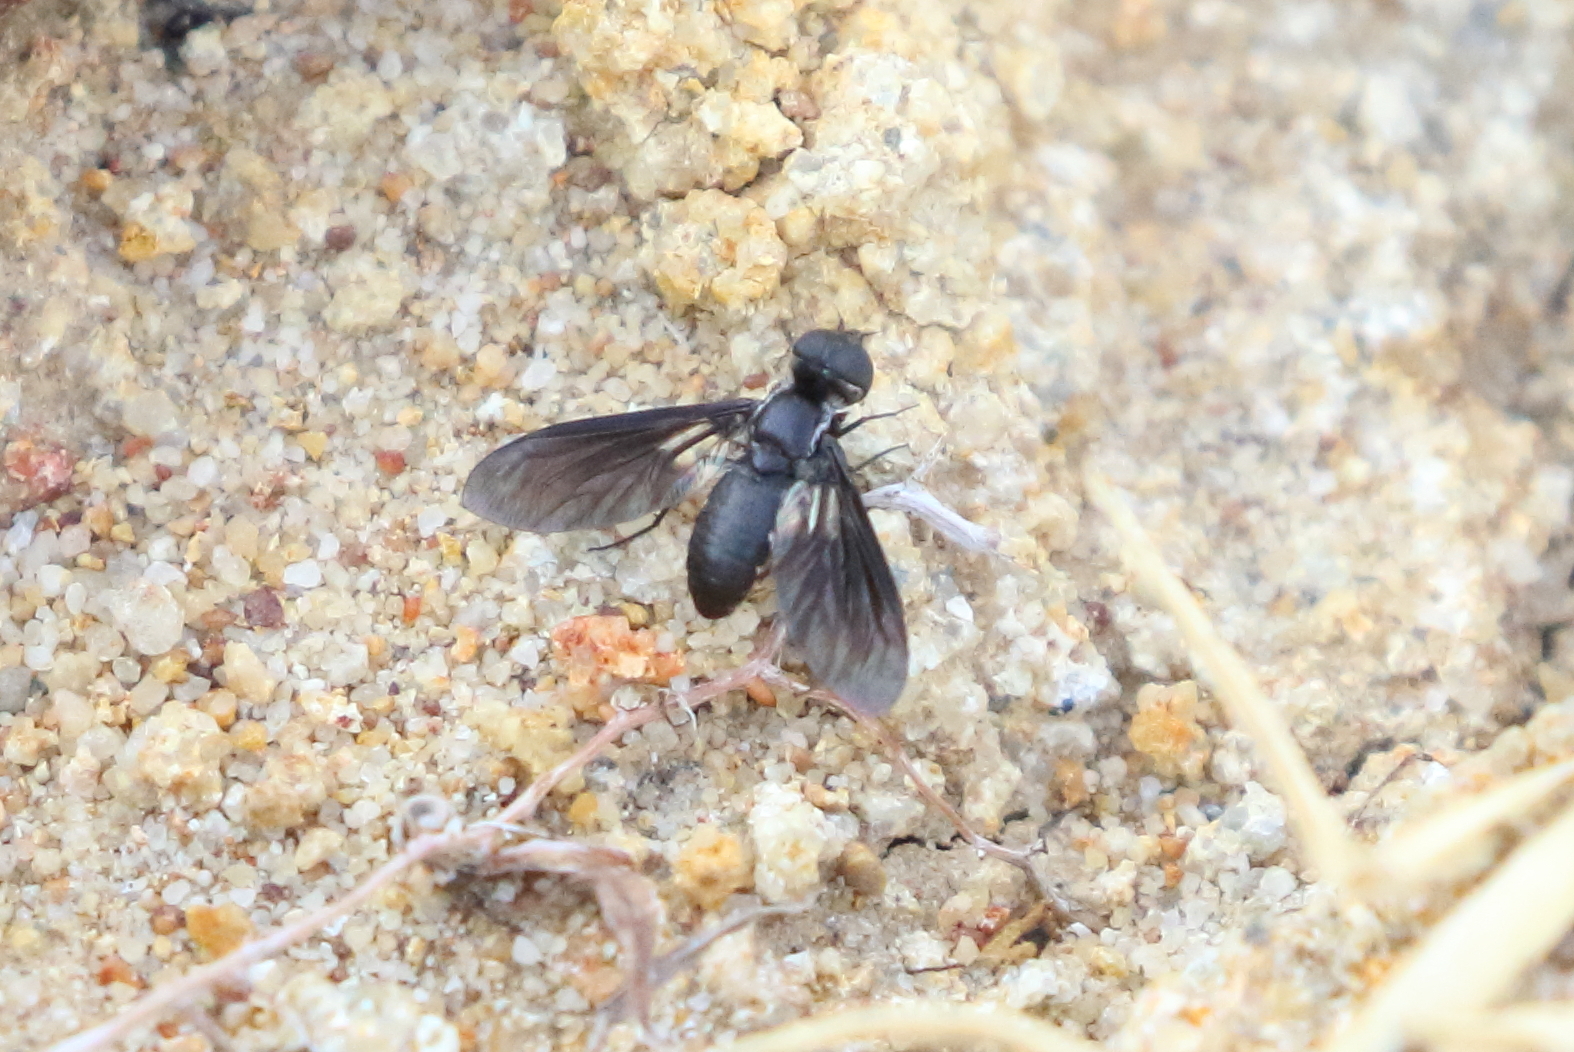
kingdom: Animalia
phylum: Arthropoda
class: Insecta
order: Diptera
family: Bombyliidae
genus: Pseudopenthes
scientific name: Pseudopenthes fenestrata
